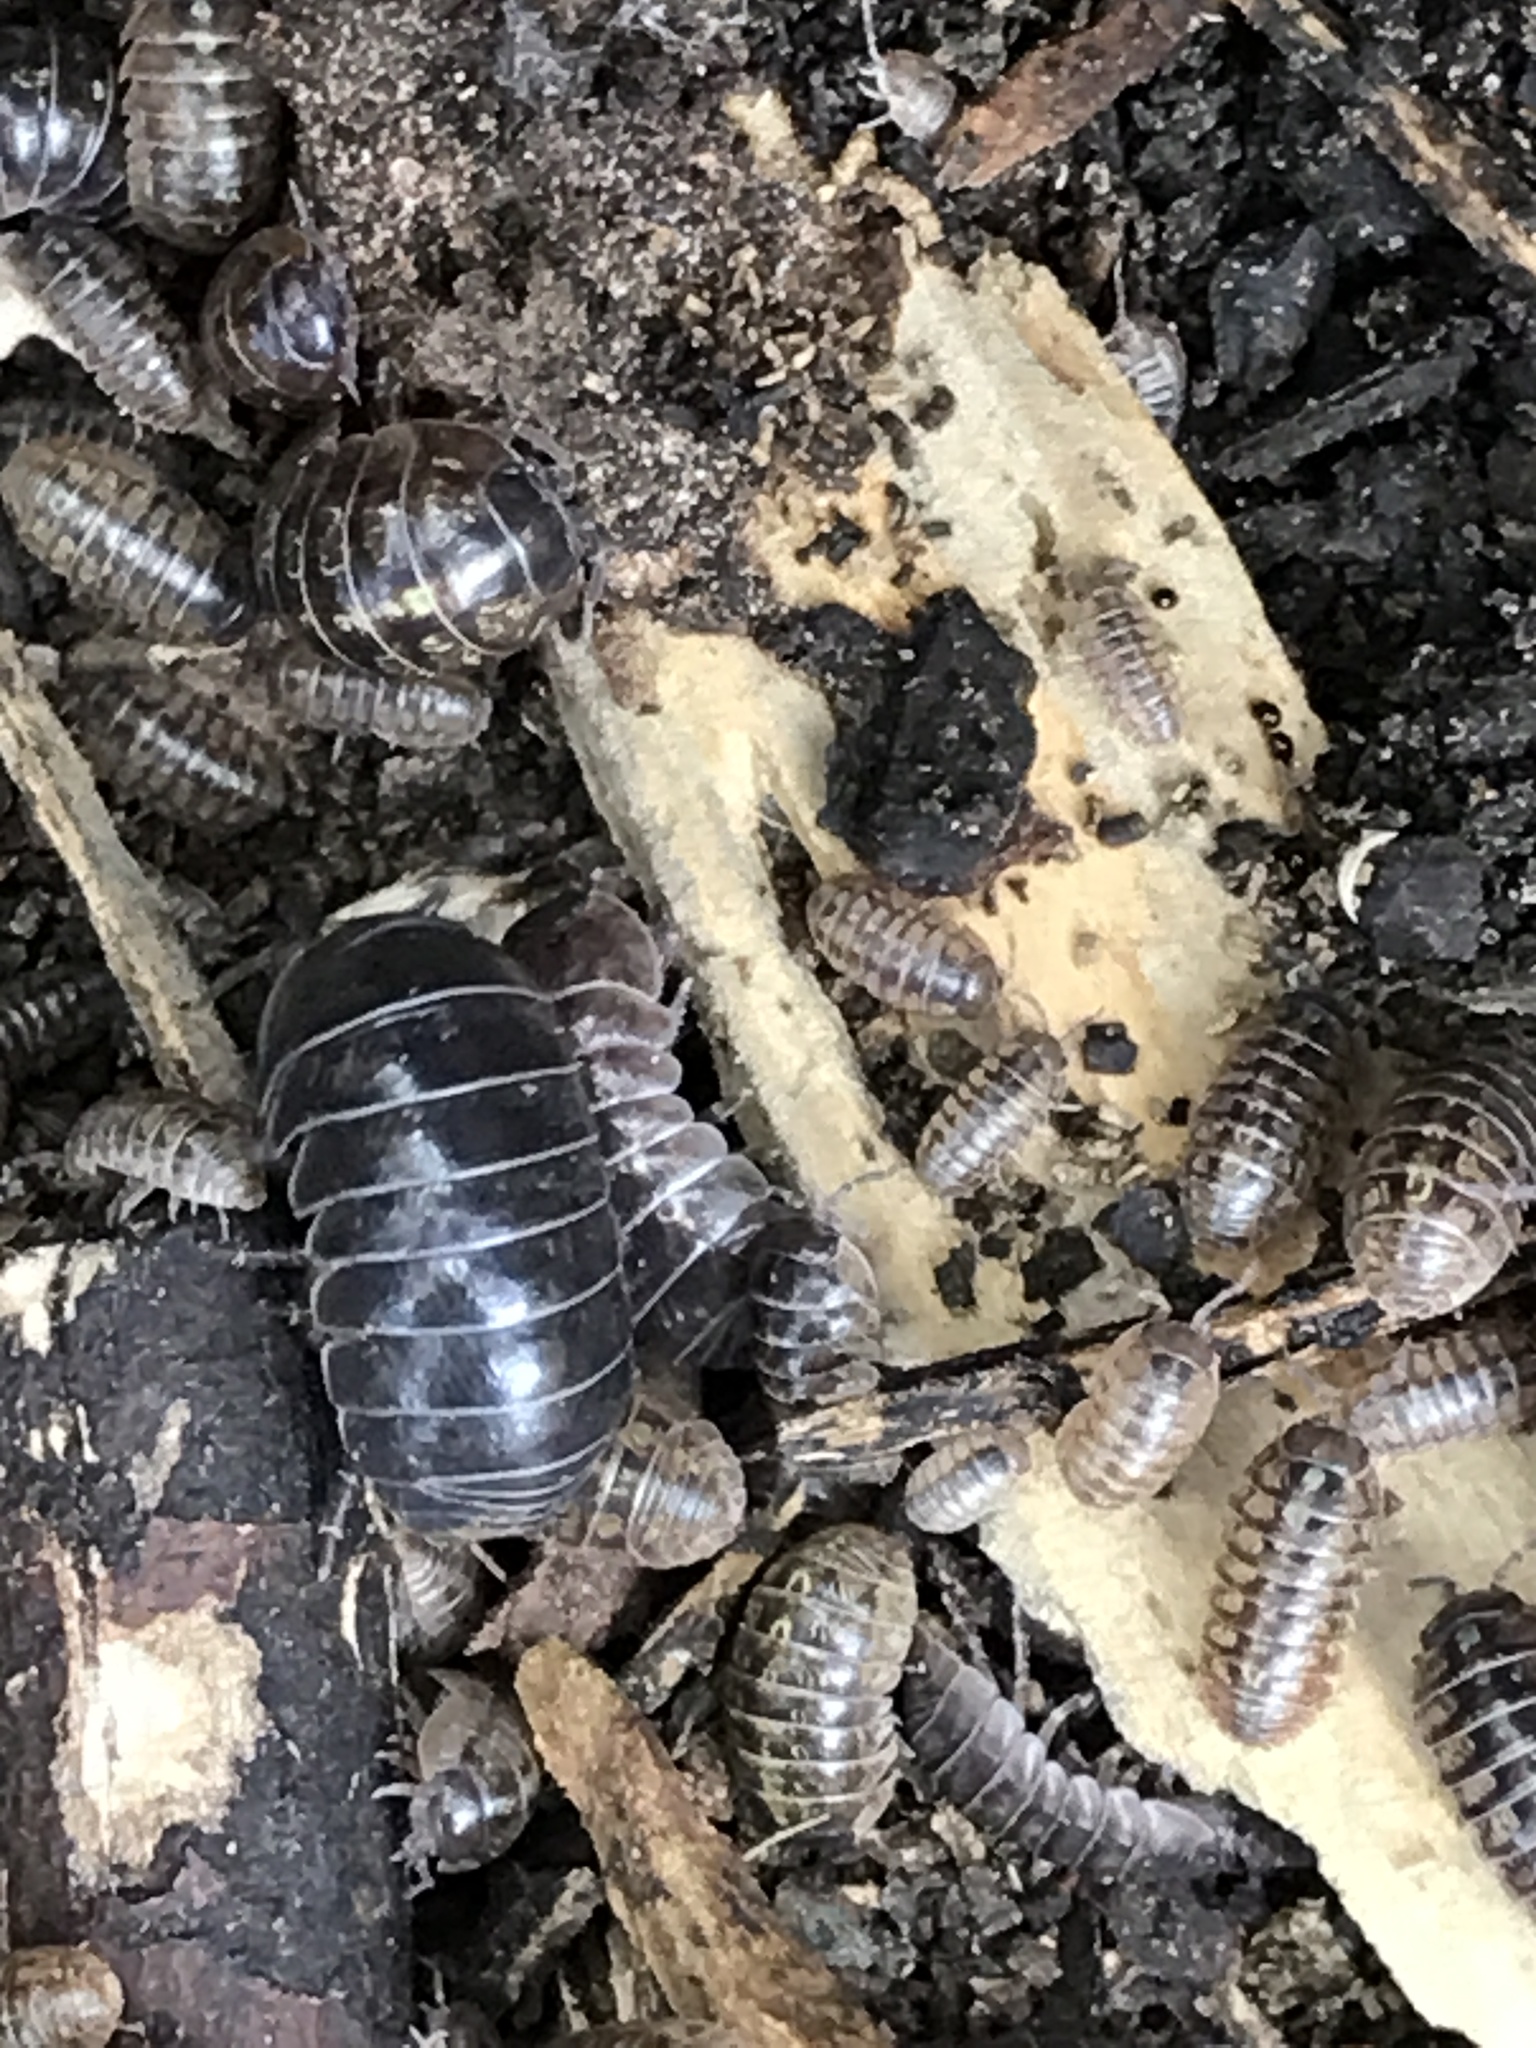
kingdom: Animalia
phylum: Arthropoda
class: Malacostraca
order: Isopoda
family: Armadillidiidae
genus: Armadillidium
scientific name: Armadillidium vulgare
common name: Common pill woodlouse
